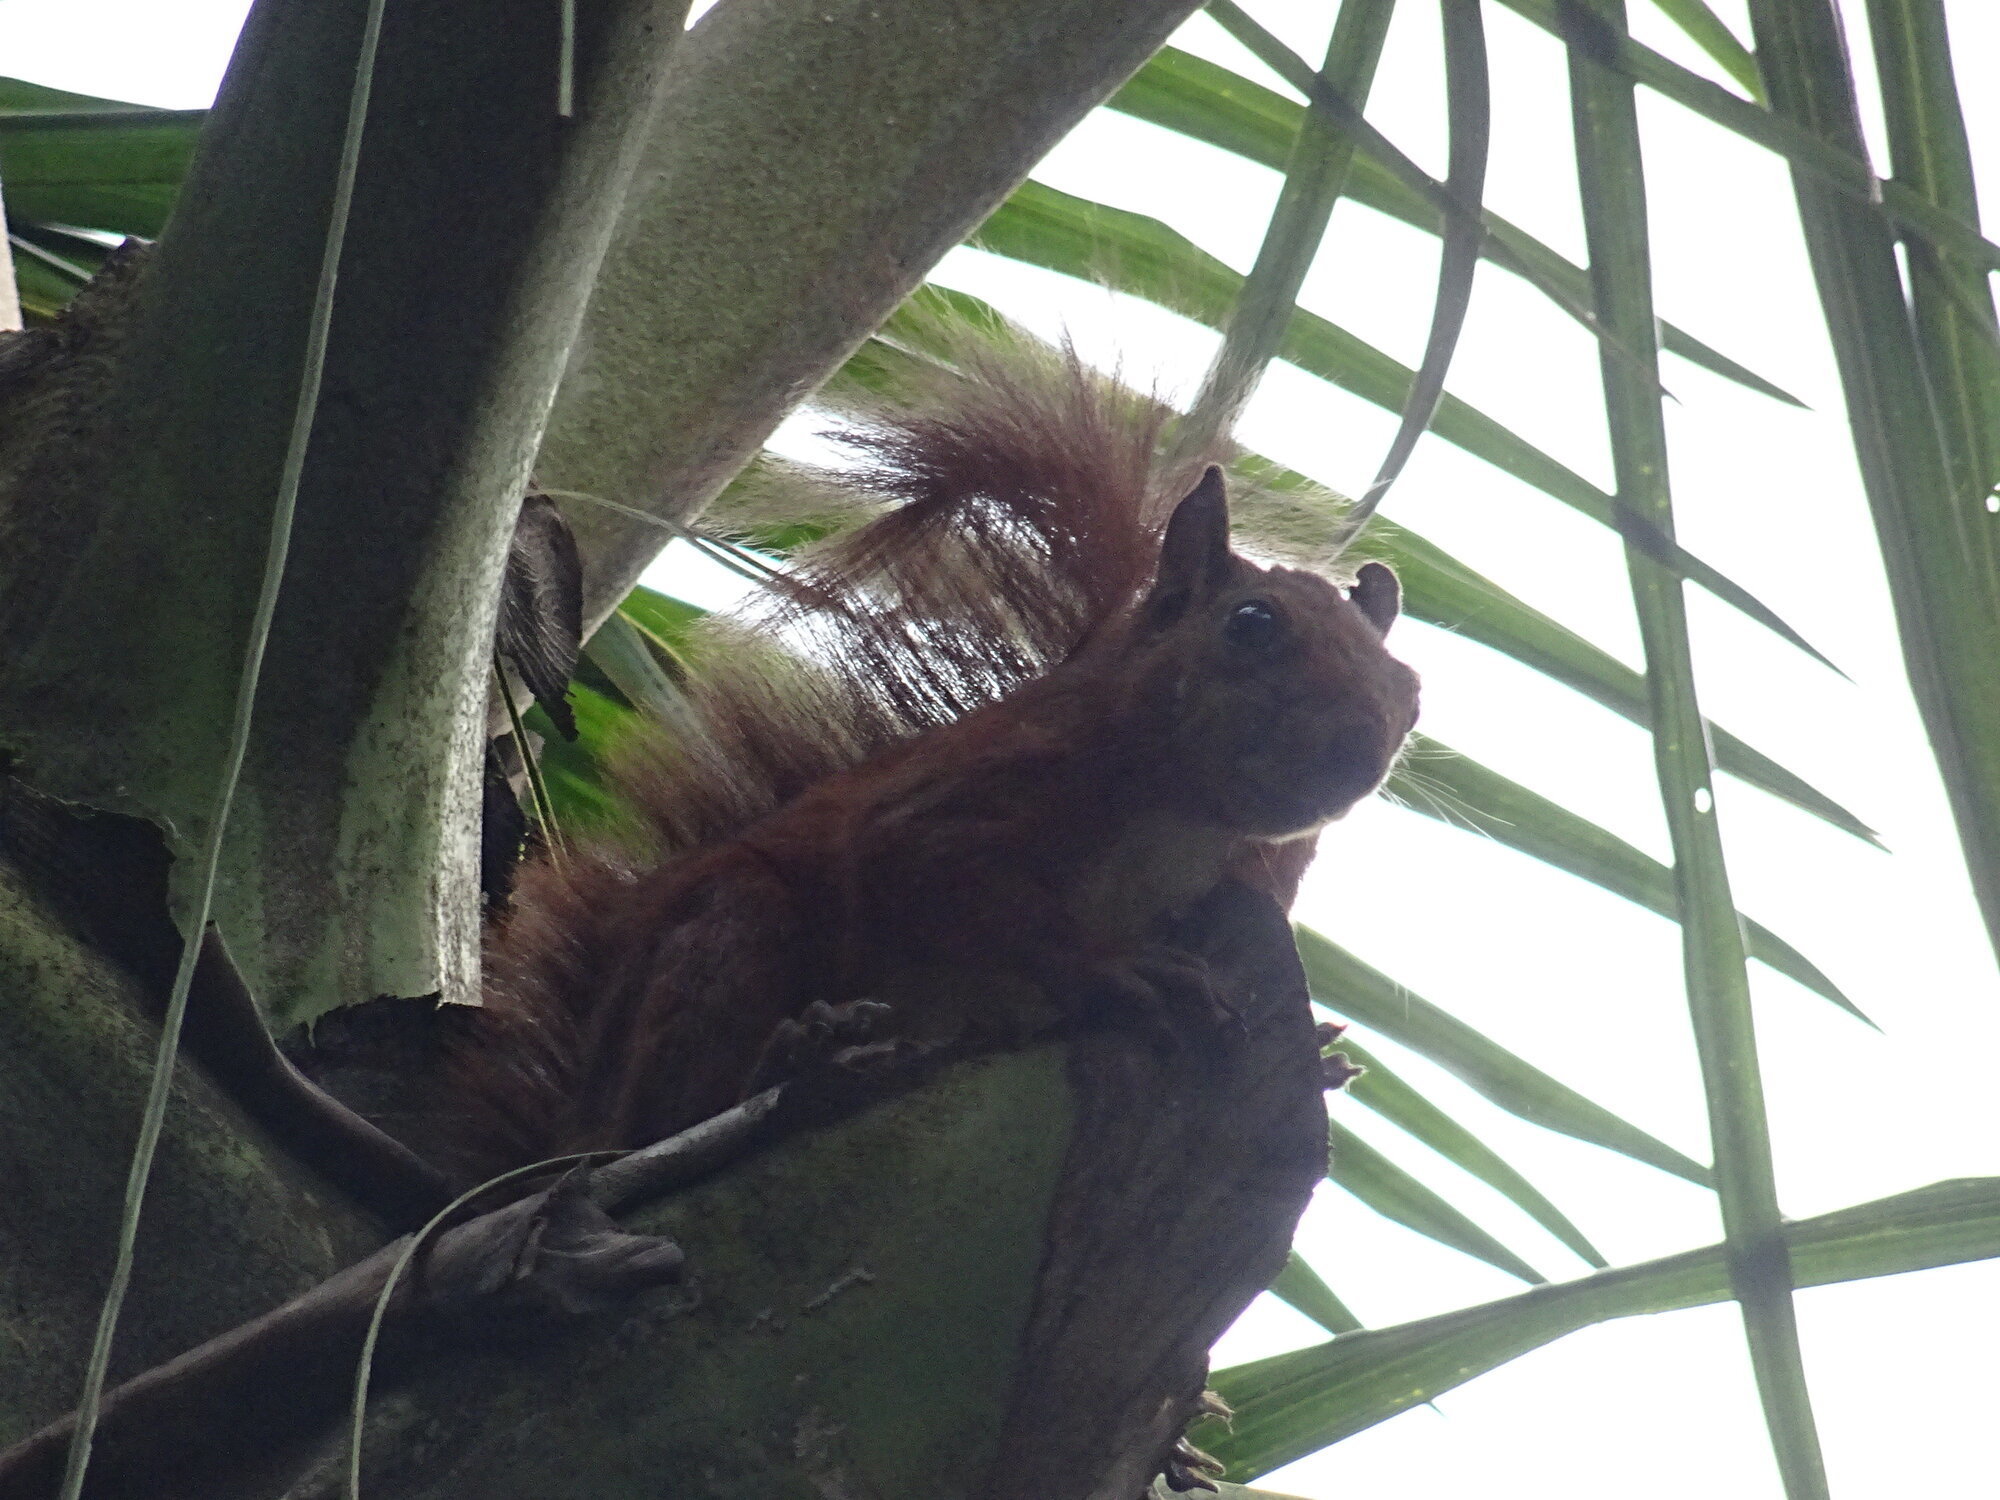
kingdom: Animalia
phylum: Chordata
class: Mammalia
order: Rodentia
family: Sciuridae
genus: Sciurus
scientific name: Sciurus granatensis
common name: Red-tailed squirrel
